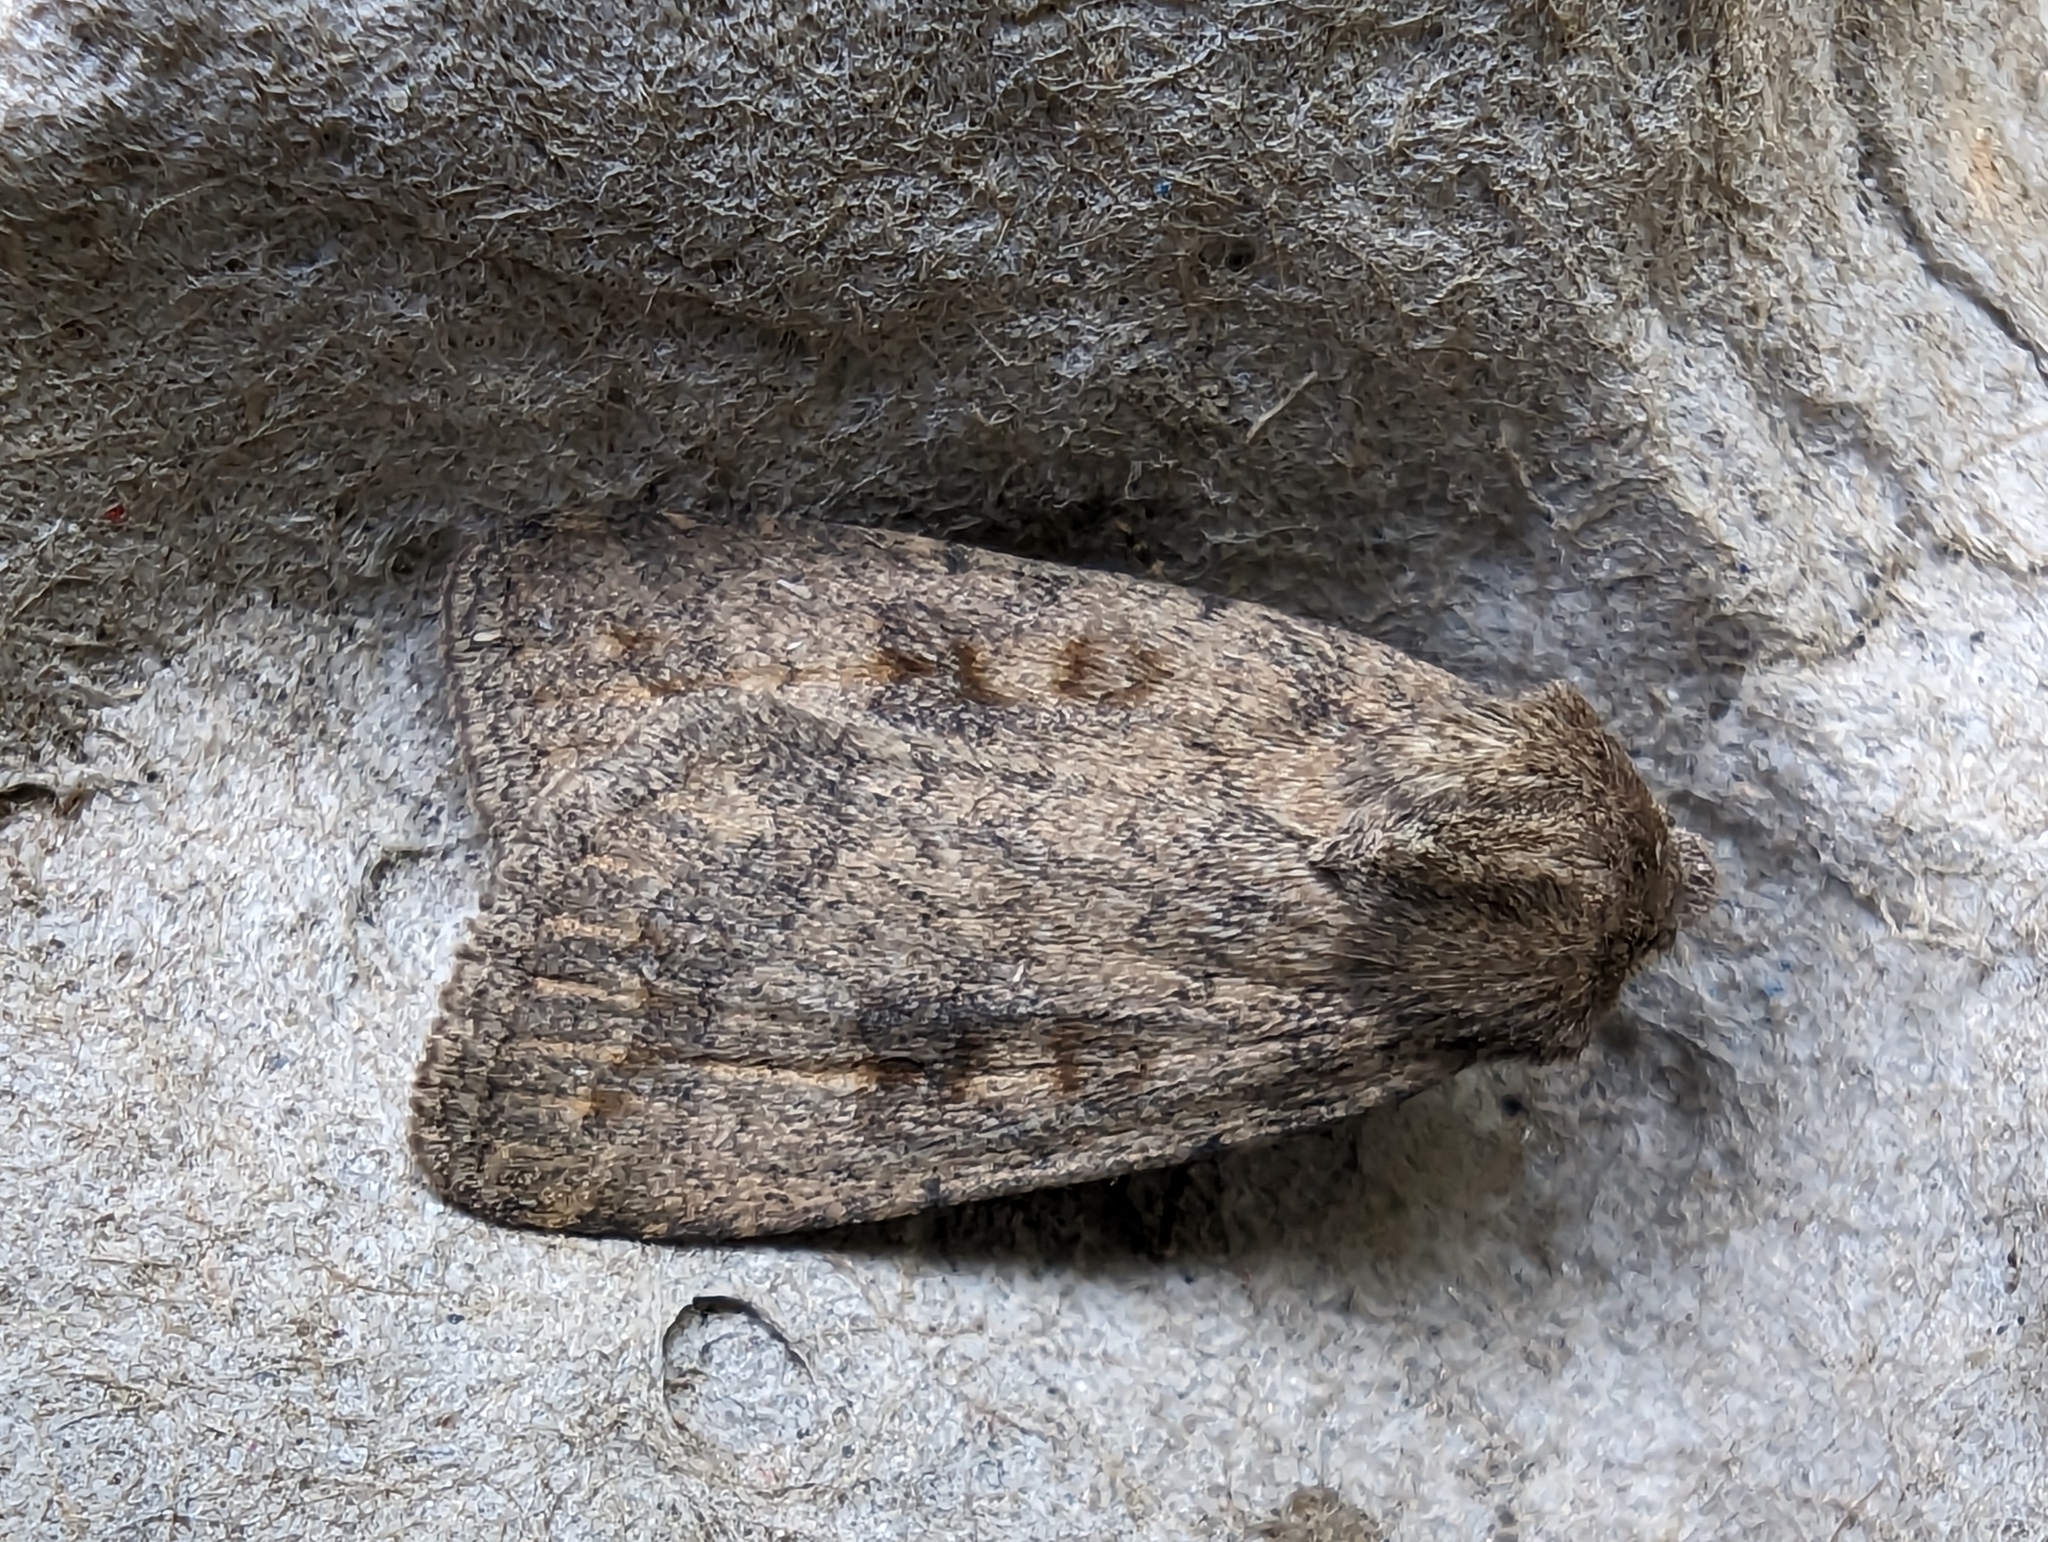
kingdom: Animalia
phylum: Arthropoda
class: Insecta
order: Lepidoptera
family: Noctuidae
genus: Caradrina
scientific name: Caradrina morpheus
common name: Mottled rustic
